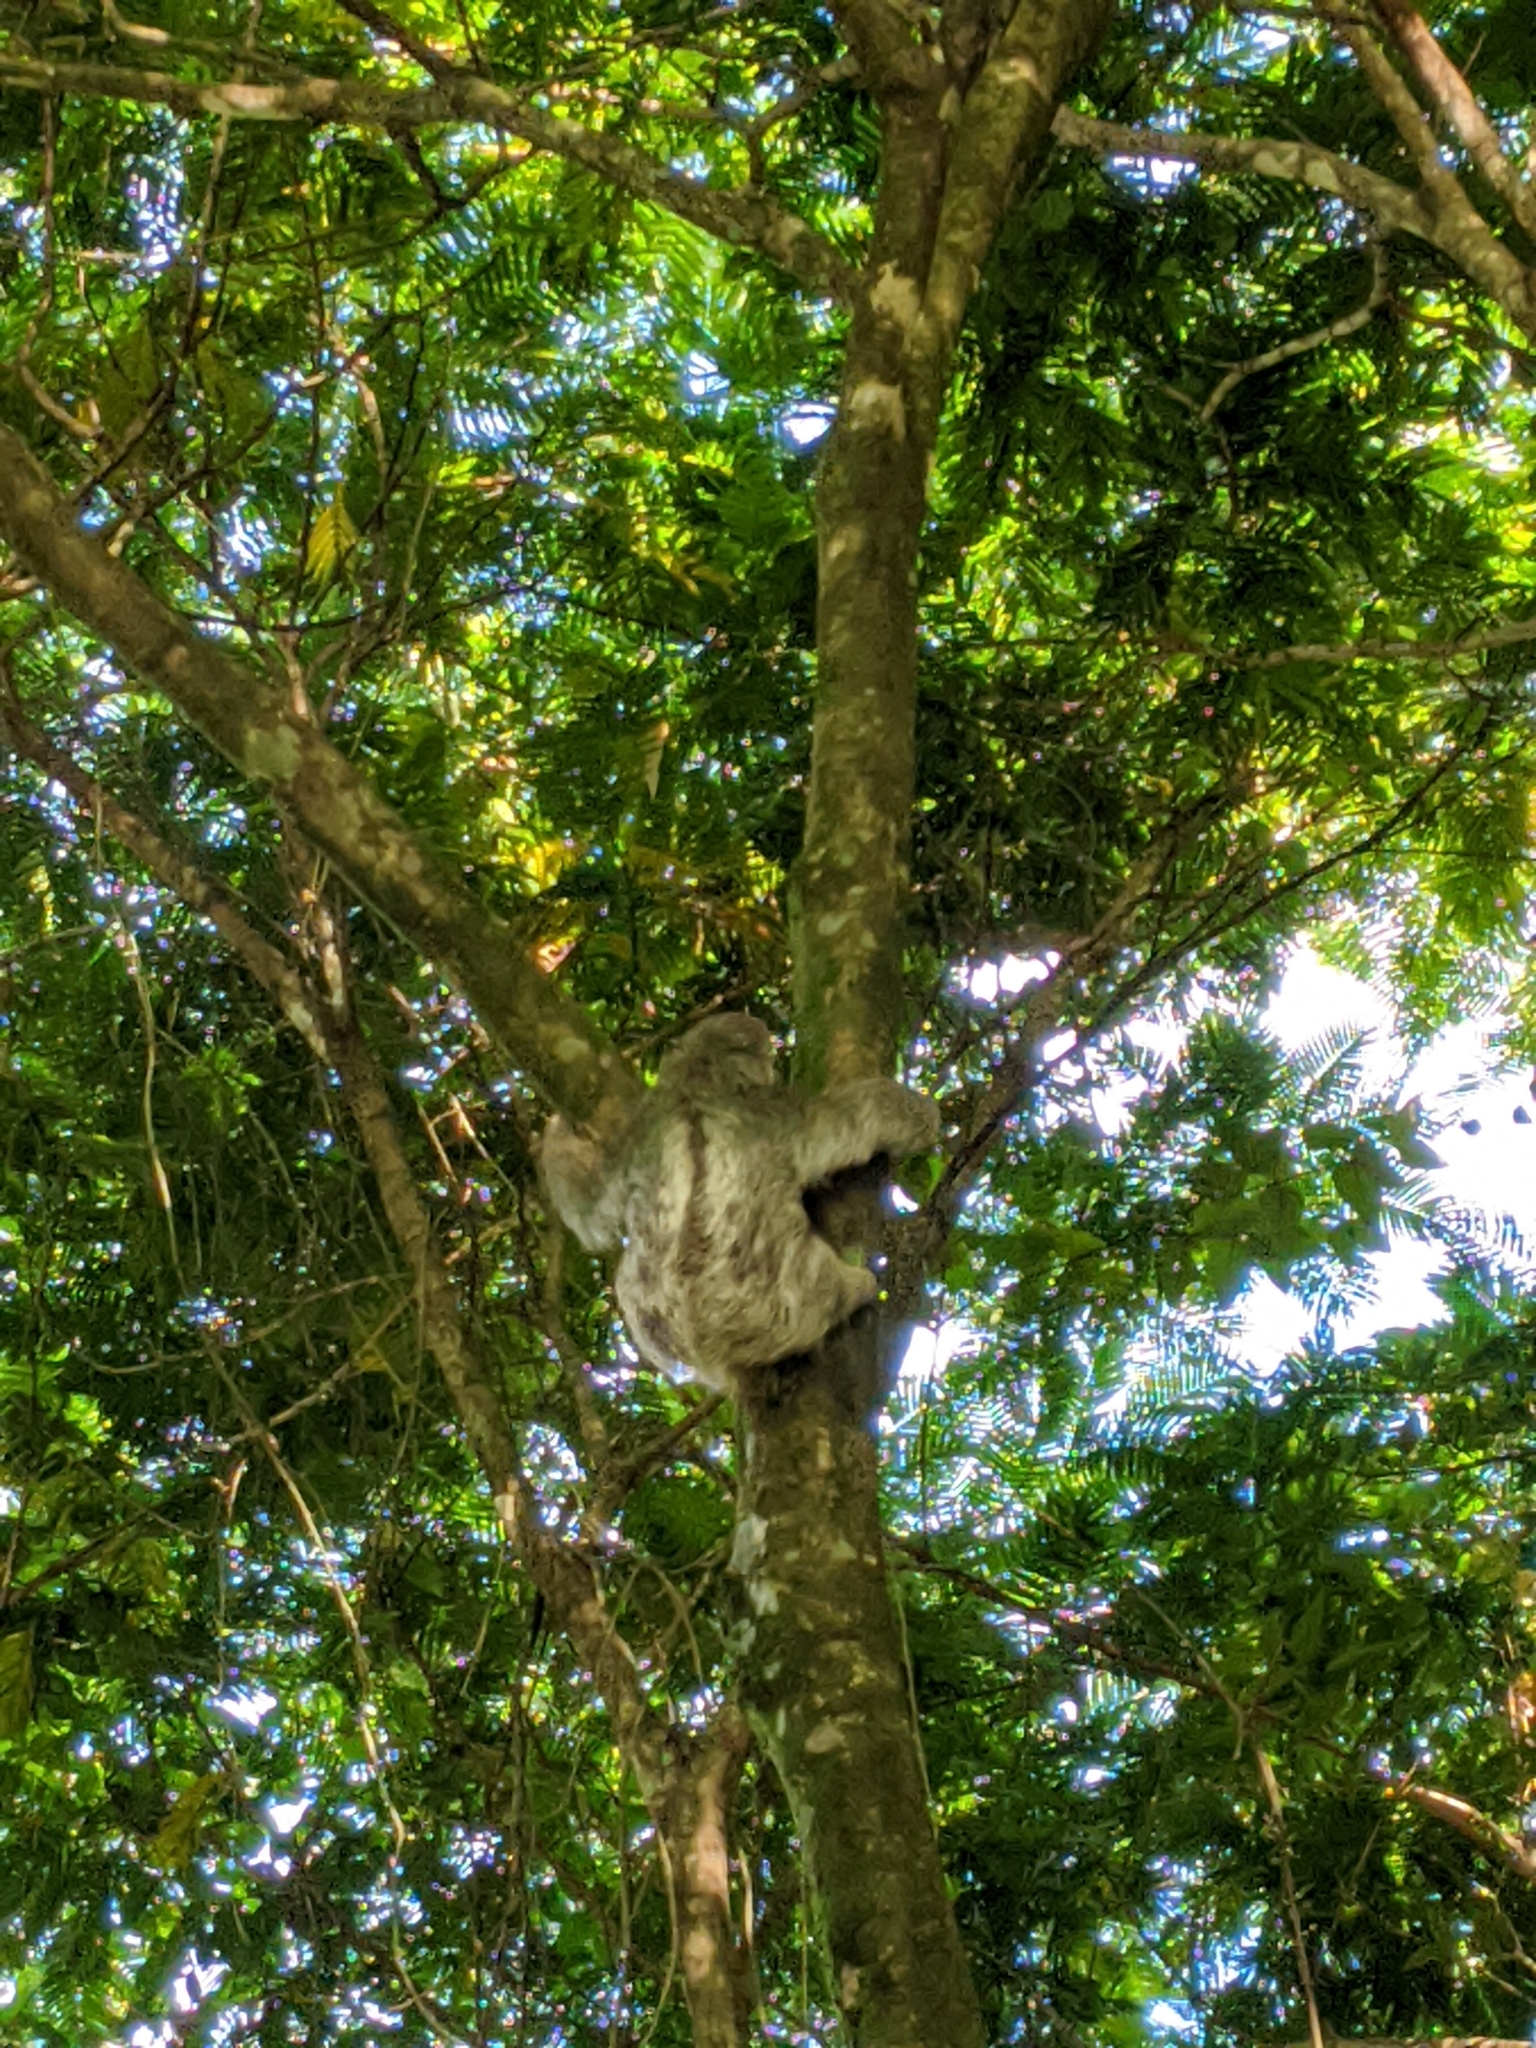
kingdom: Animalia
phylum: Chordata
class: Mammalia
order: Pilosa
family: Bradypodidae
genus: Bradypus
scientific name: Bradypus variegatus
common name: Brown-throated three-toed sloth
